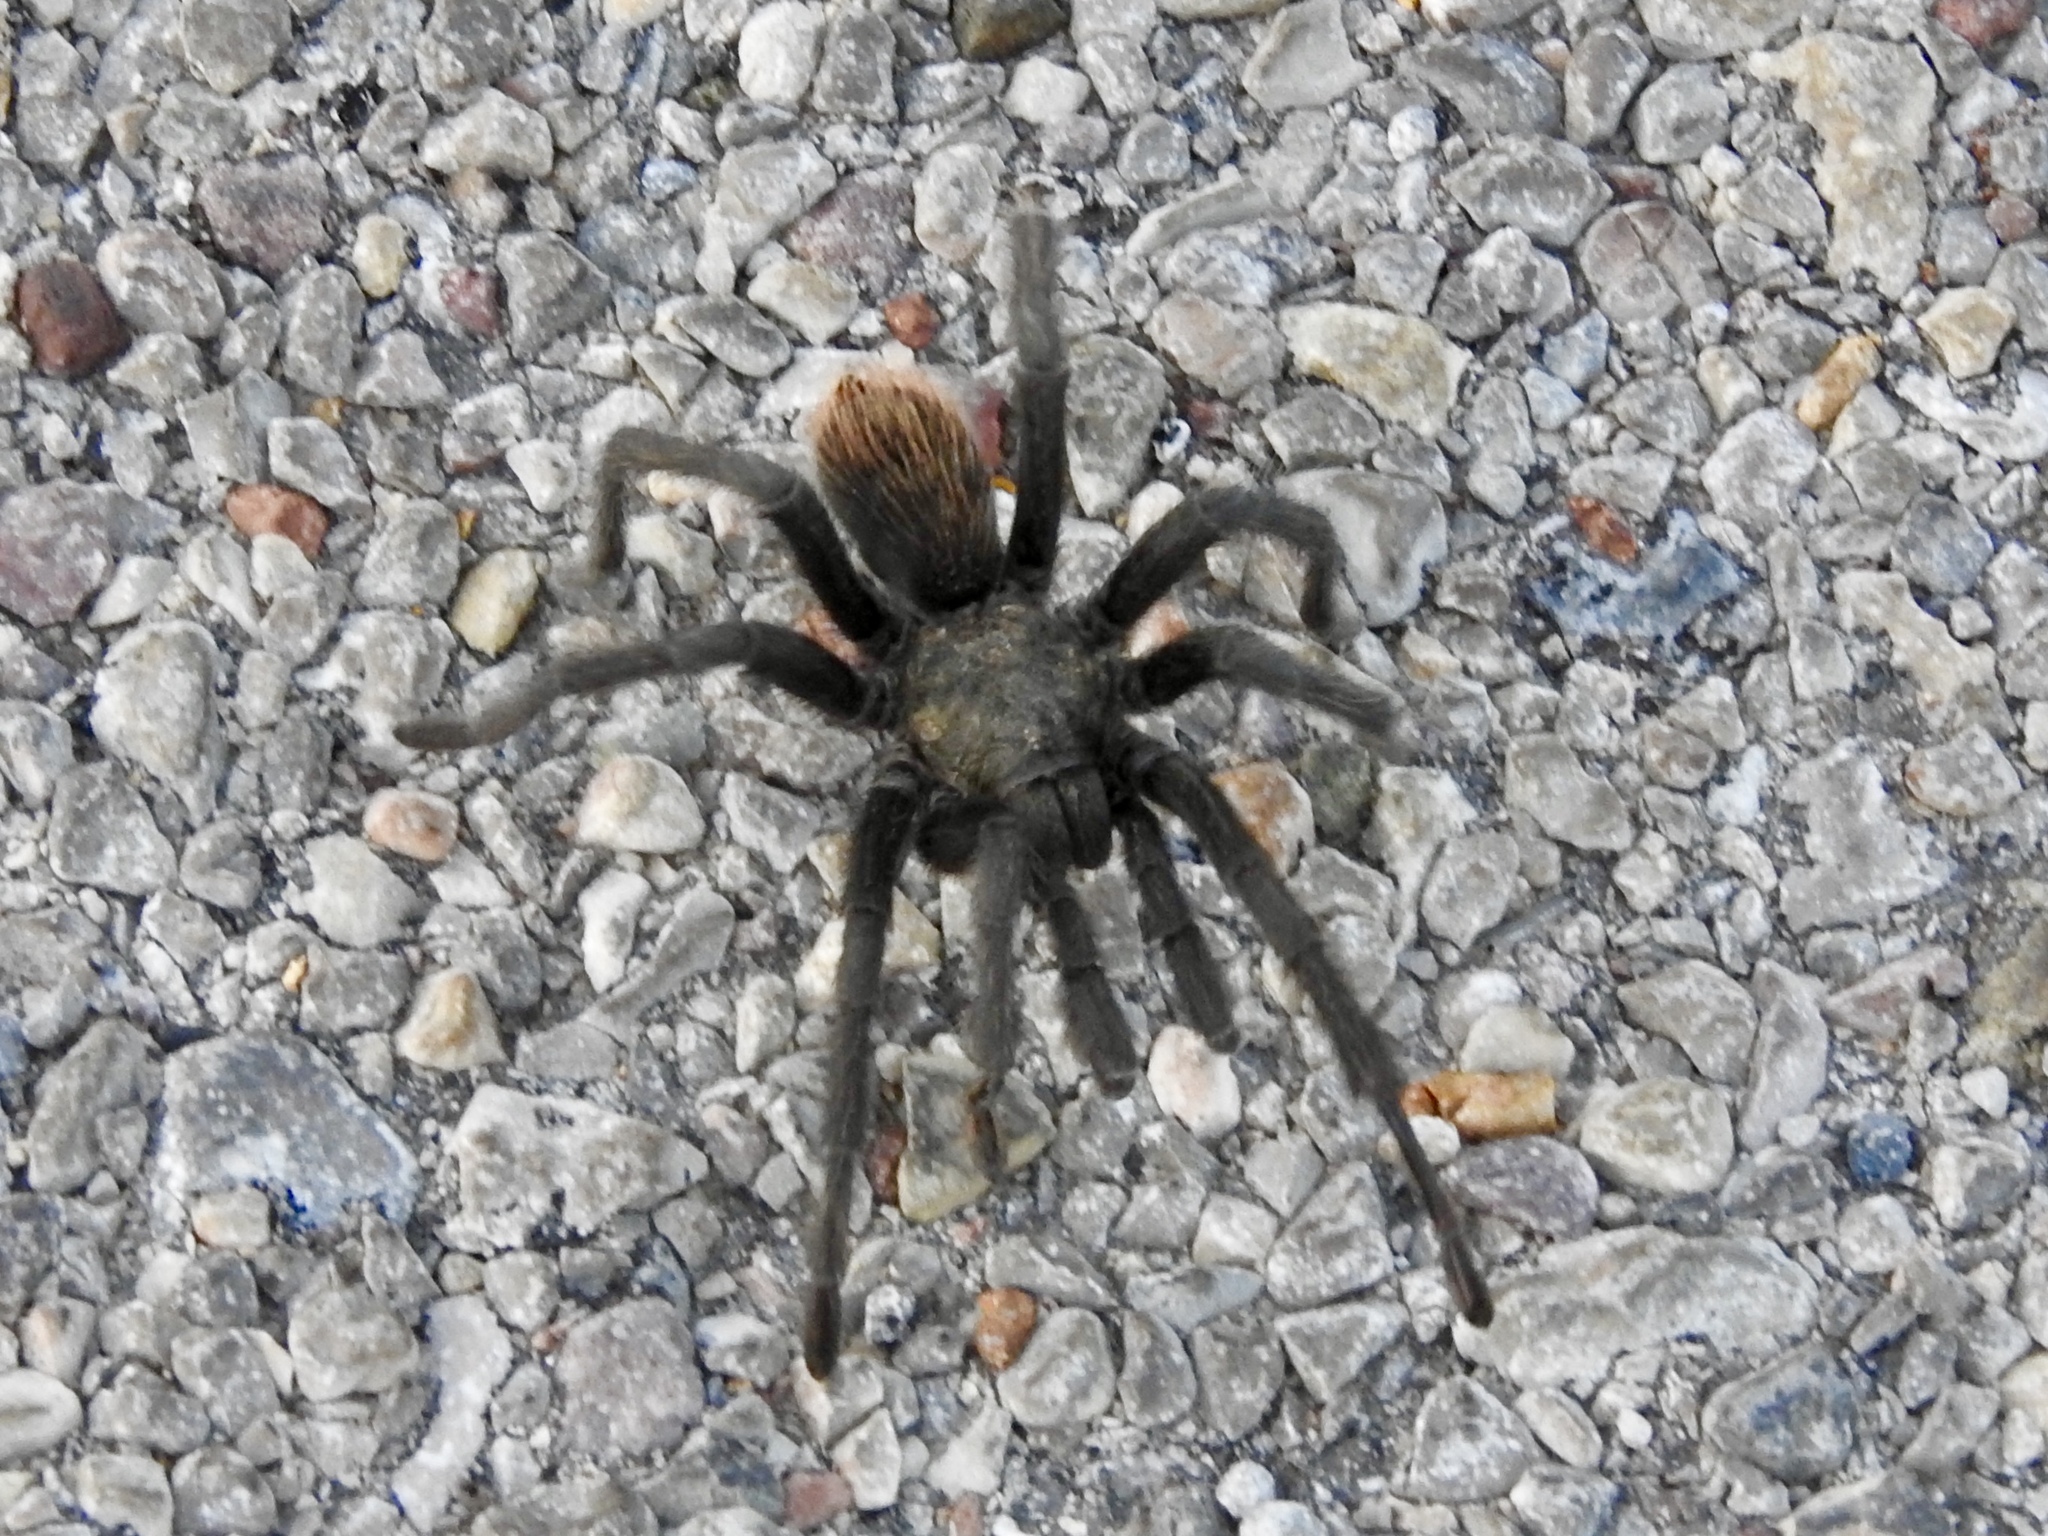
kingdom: Animalia
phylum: Arthropoda
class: Arachnida
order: Araneae
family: Theraphosidae
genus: Aphonopelma
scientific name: Aphonopelma vorhiesi
